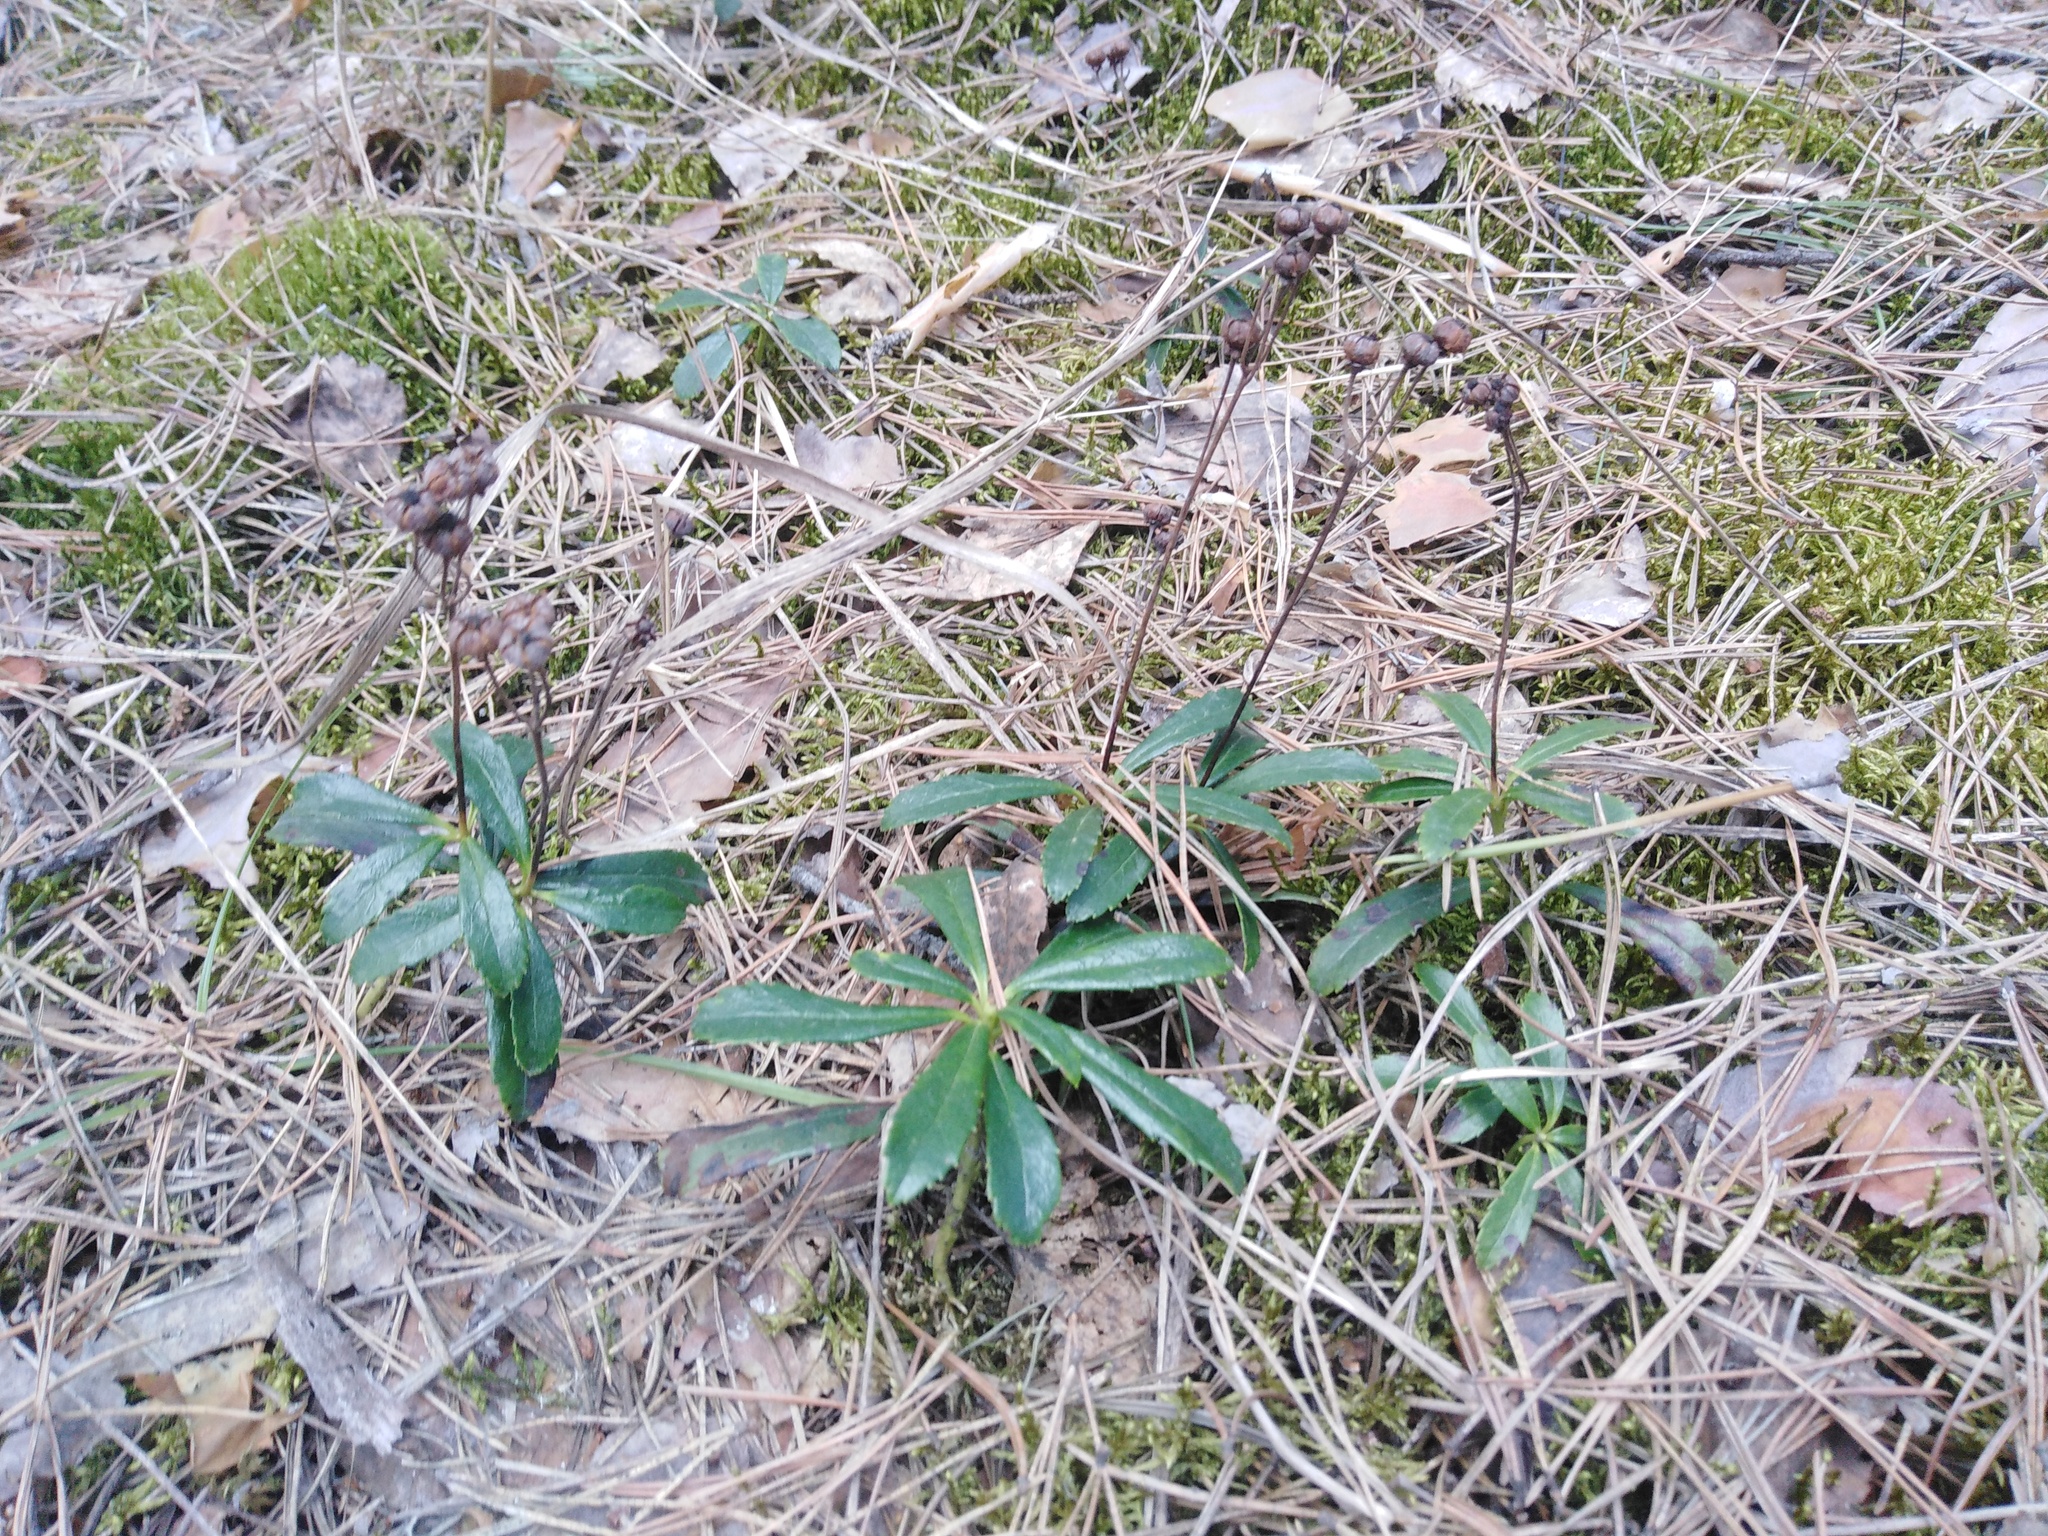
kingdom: Plantae
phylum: Tracheophyta
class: Magnoliopsida
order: Ericales
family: Ericaceae
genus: Chimaphila
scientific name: Chimaphila umbellata
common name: Pipsissewa
